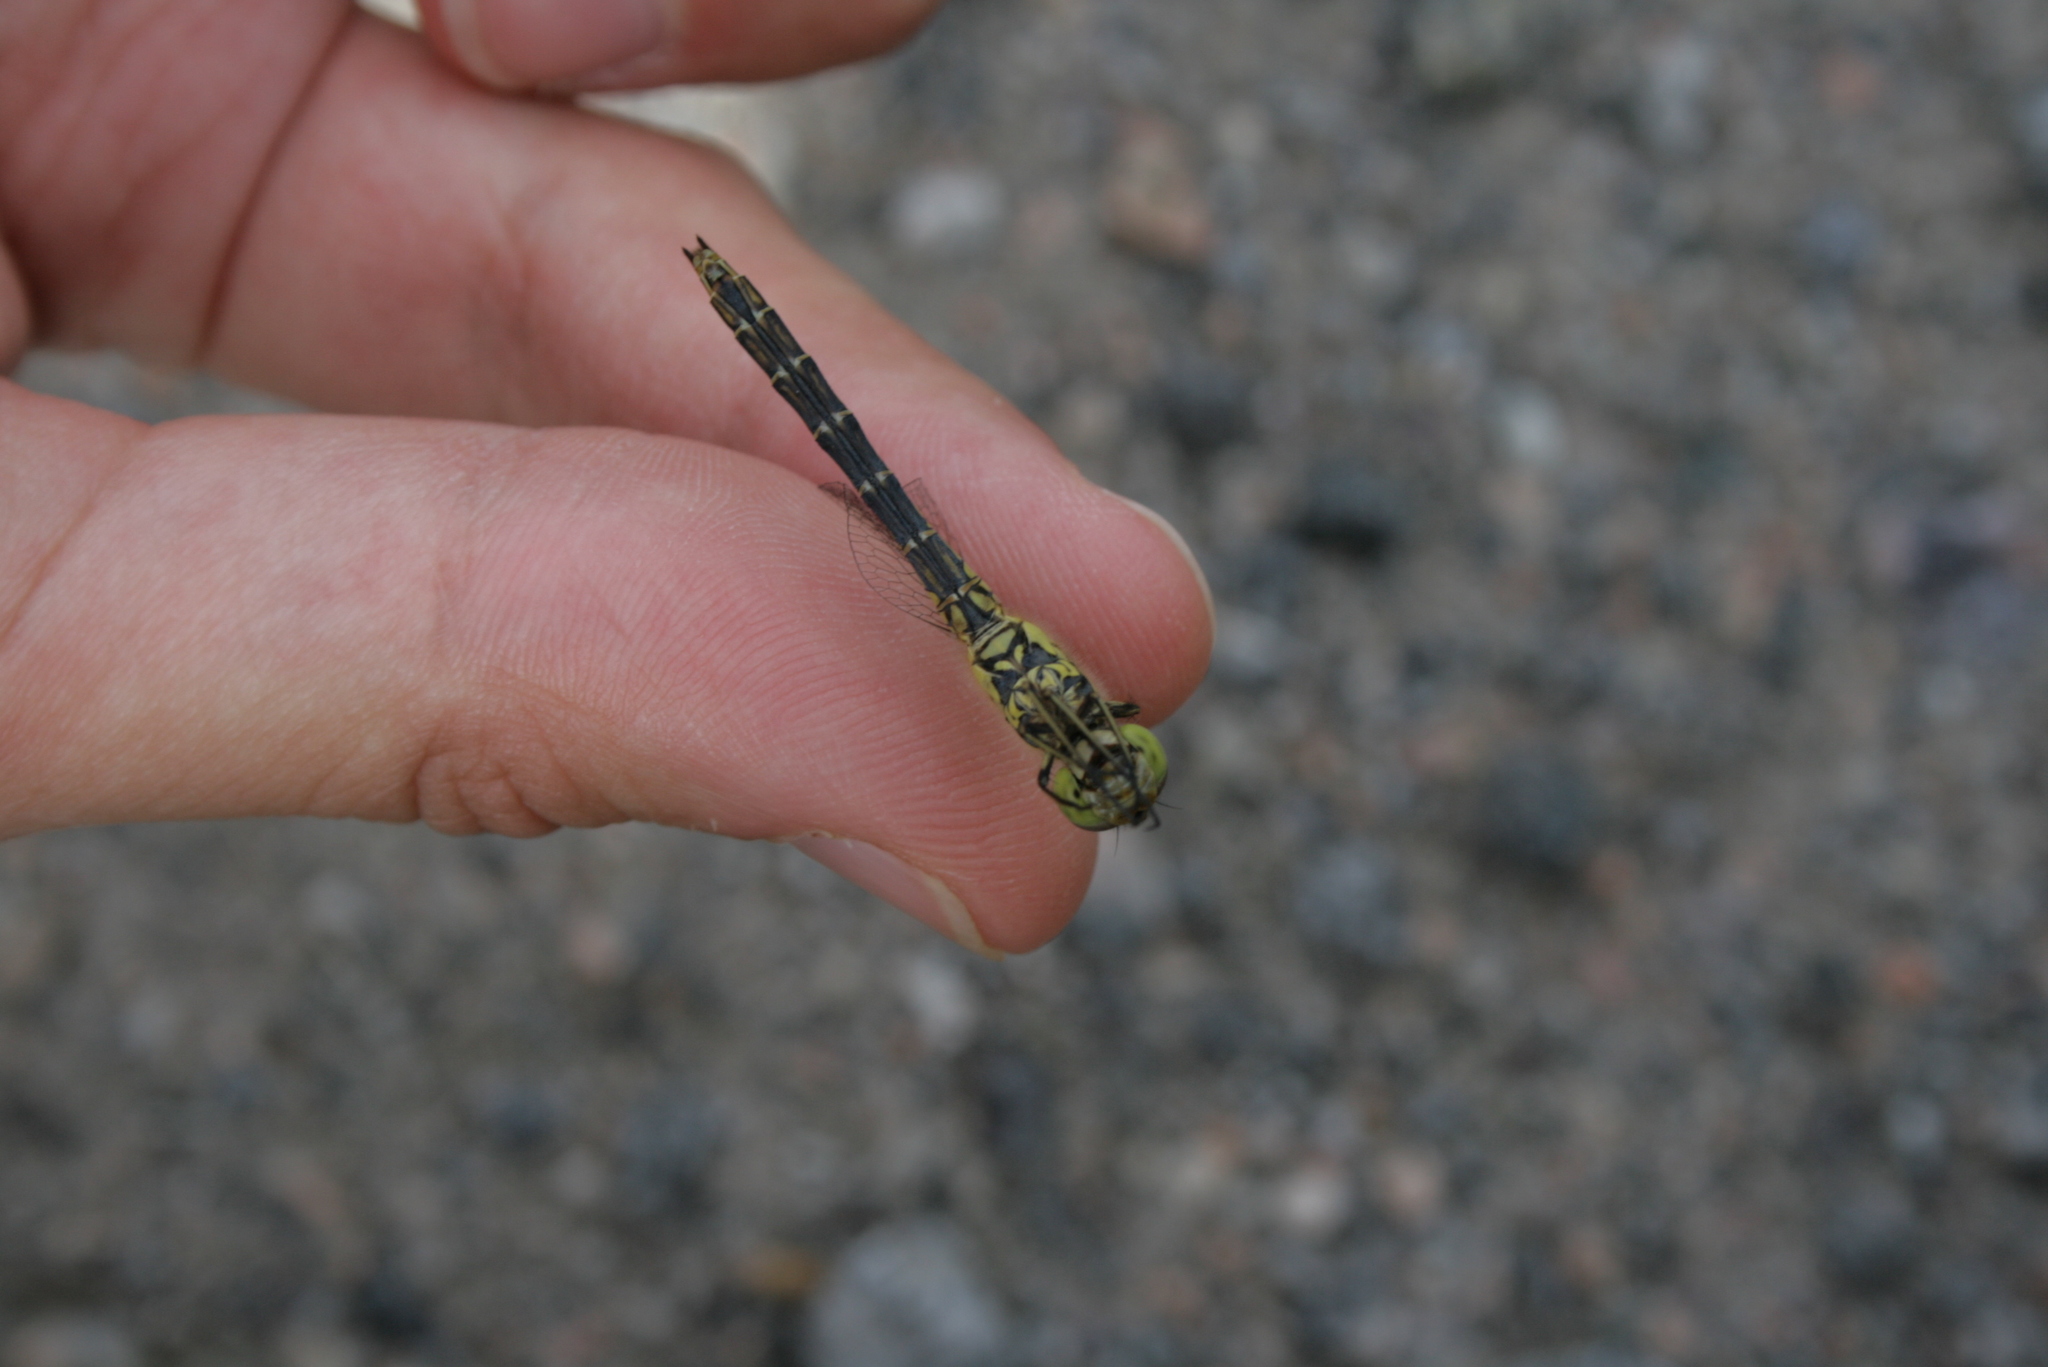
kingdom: Animalia
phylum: Arthropoda
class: Insecta
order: Odonata
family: Libellulidae
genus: Sympetrum
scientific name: Sympetrum vulgatum
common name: Vagrant darter
